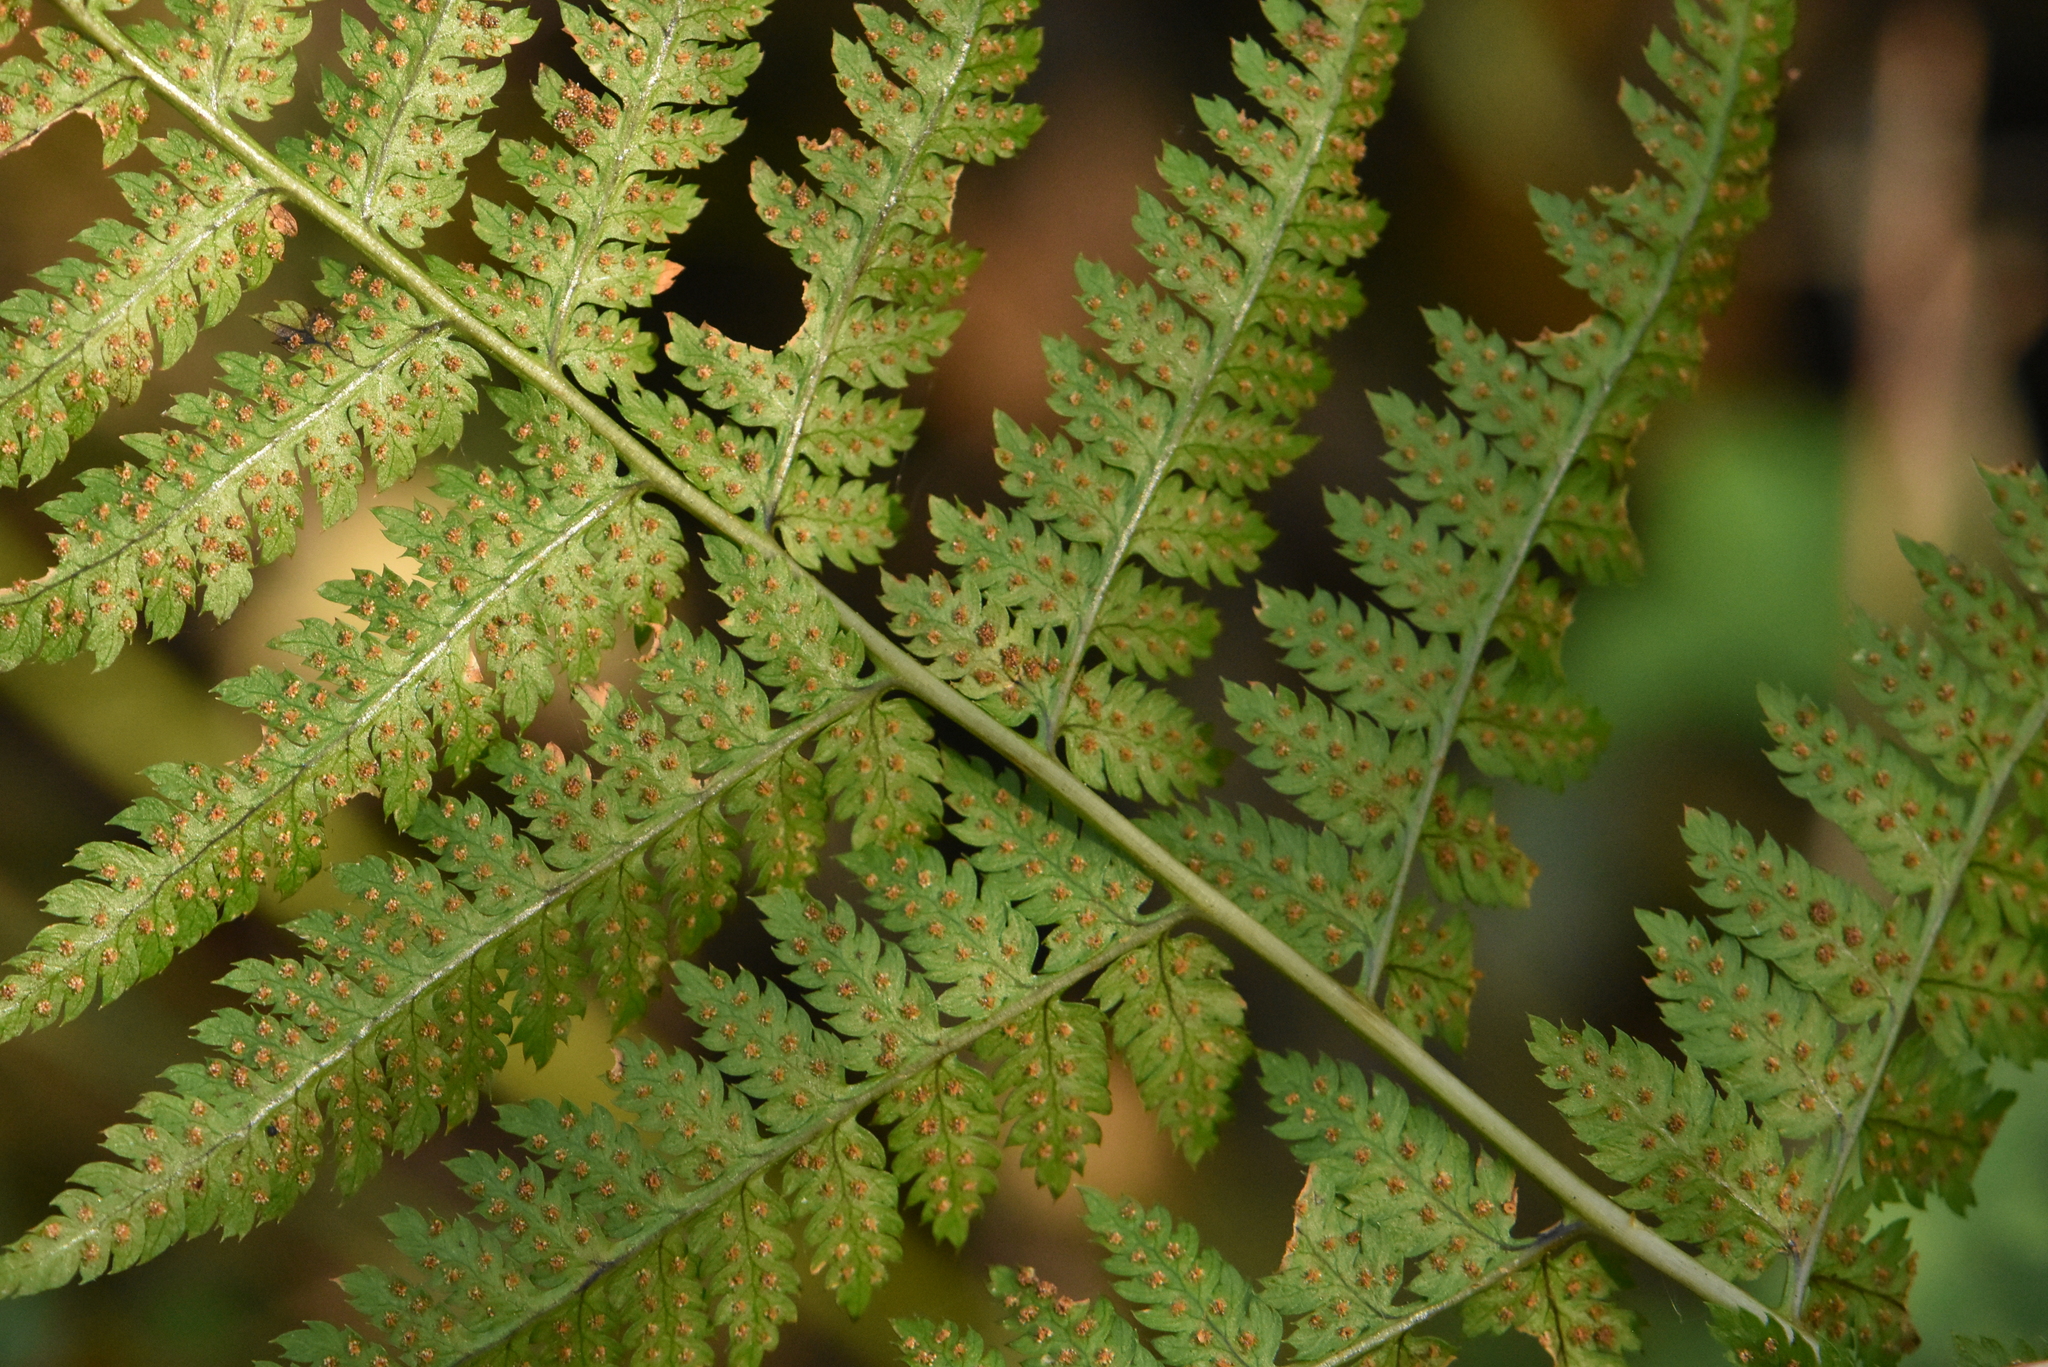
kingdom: Plantae
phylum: Tracheophyta
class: Polypodiopsida
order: Polypodiales
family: Dryopteridaceae
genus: Dryopteris
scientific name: Dryopteris carthusiana
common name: Narrow buckler-fern
